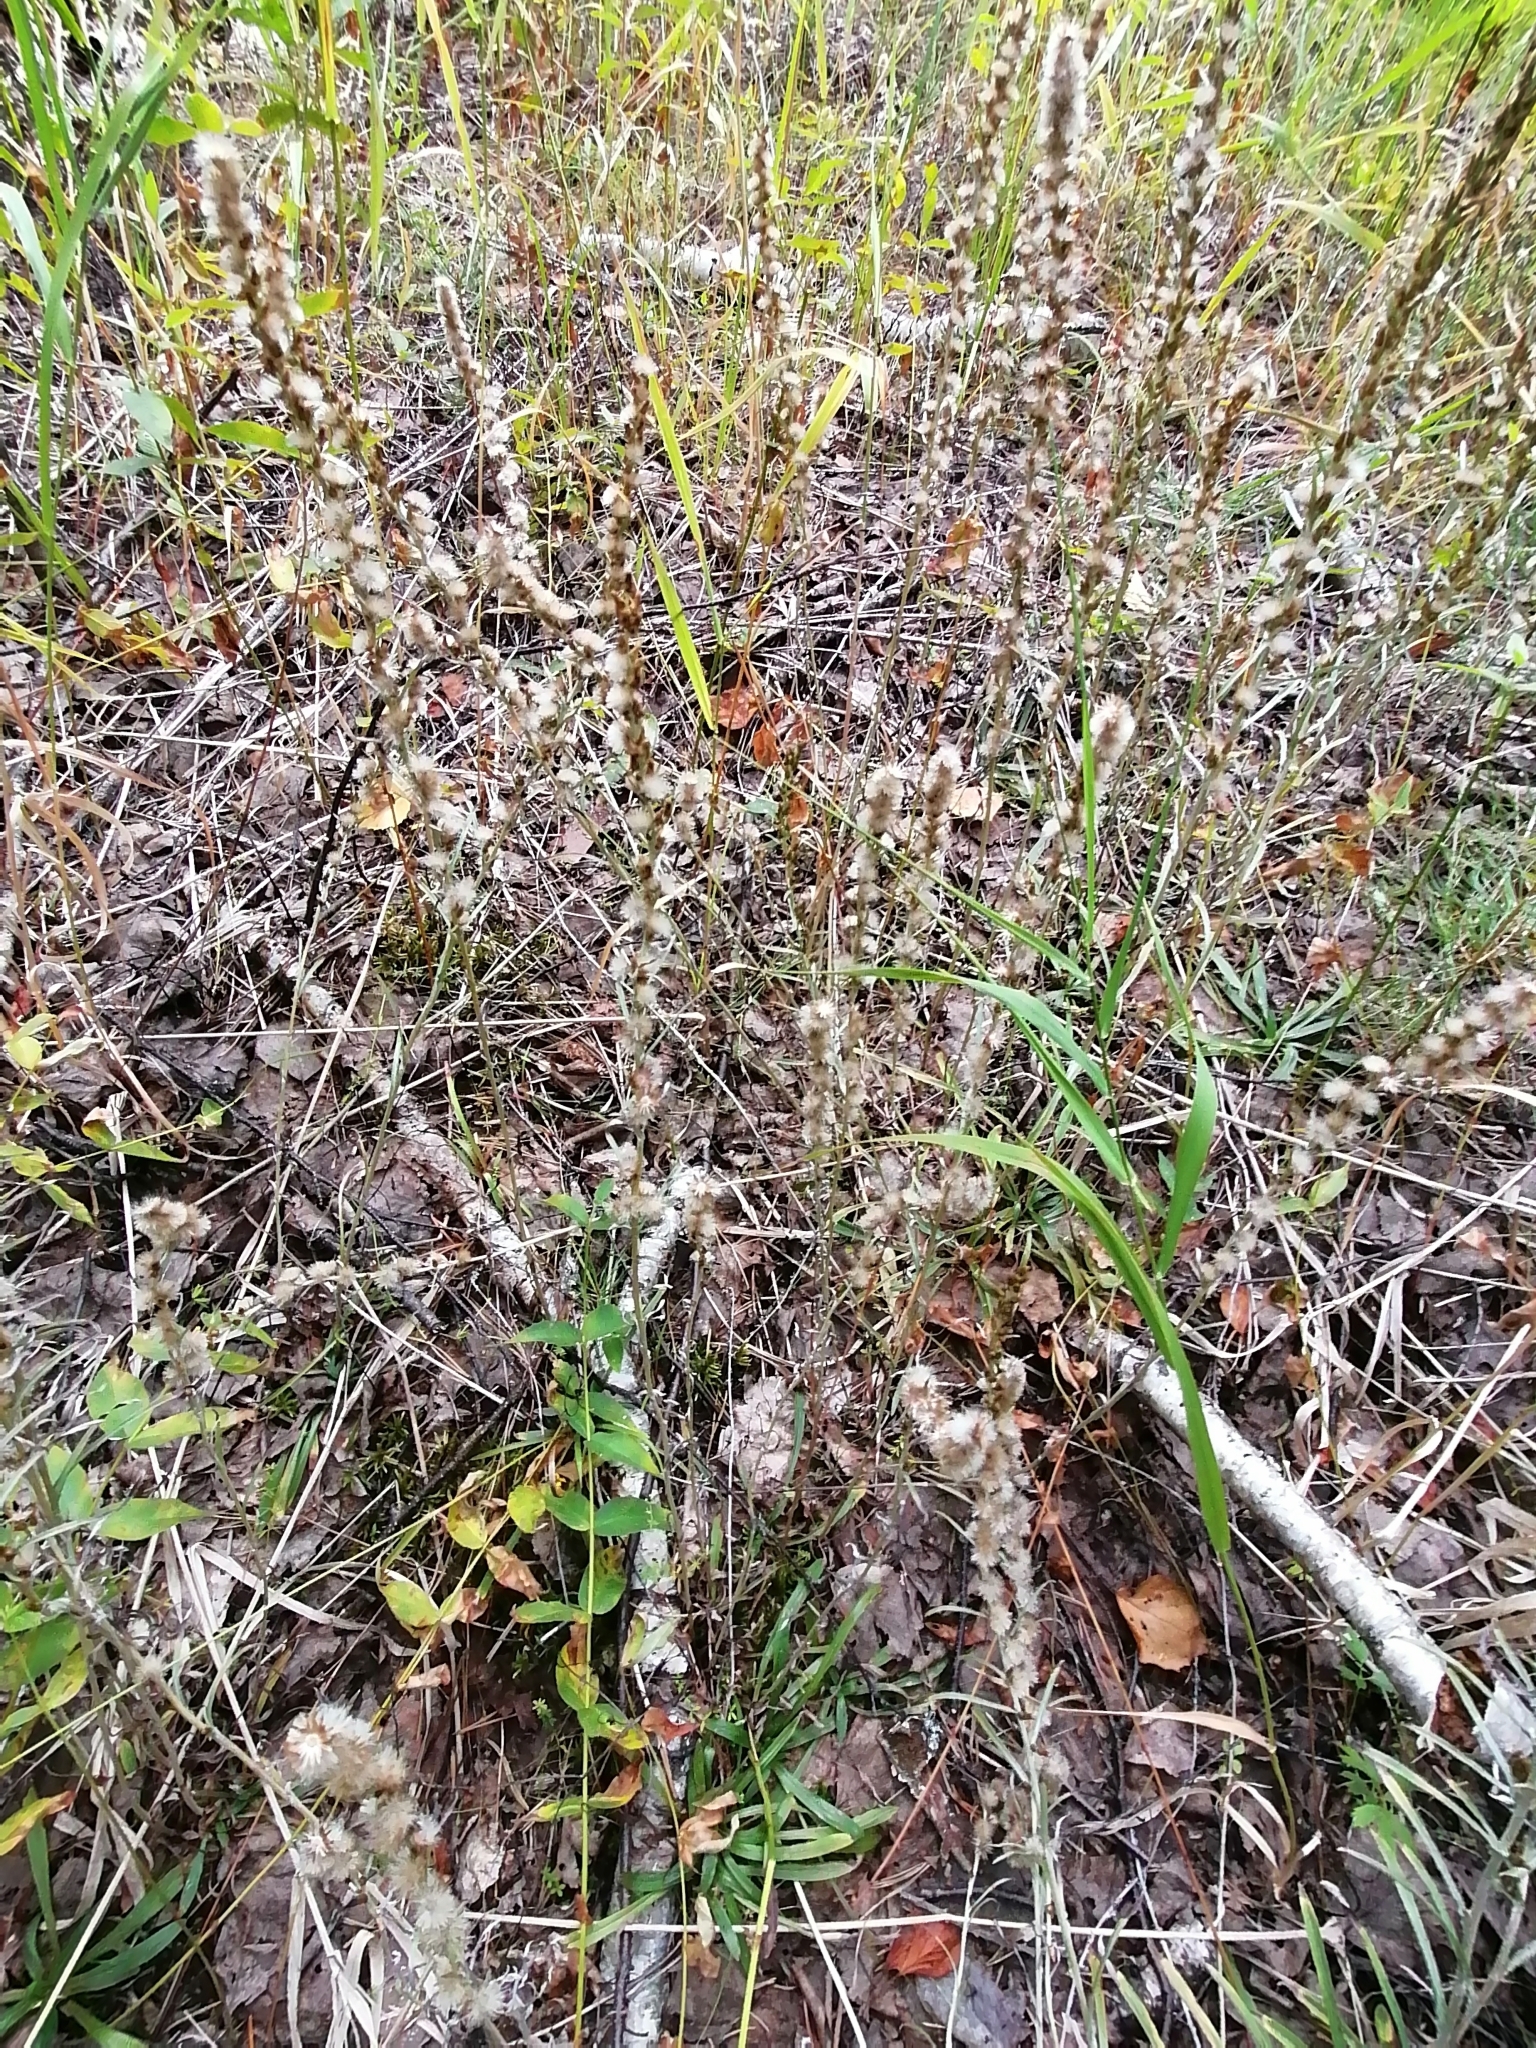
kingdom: Plantae
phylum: Tracheophyta
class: Magnoliopsida
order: Asterales
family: Asteraceae
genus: Omalotheca
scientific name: Omalotheca sylvatica
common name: Heath cudweed
